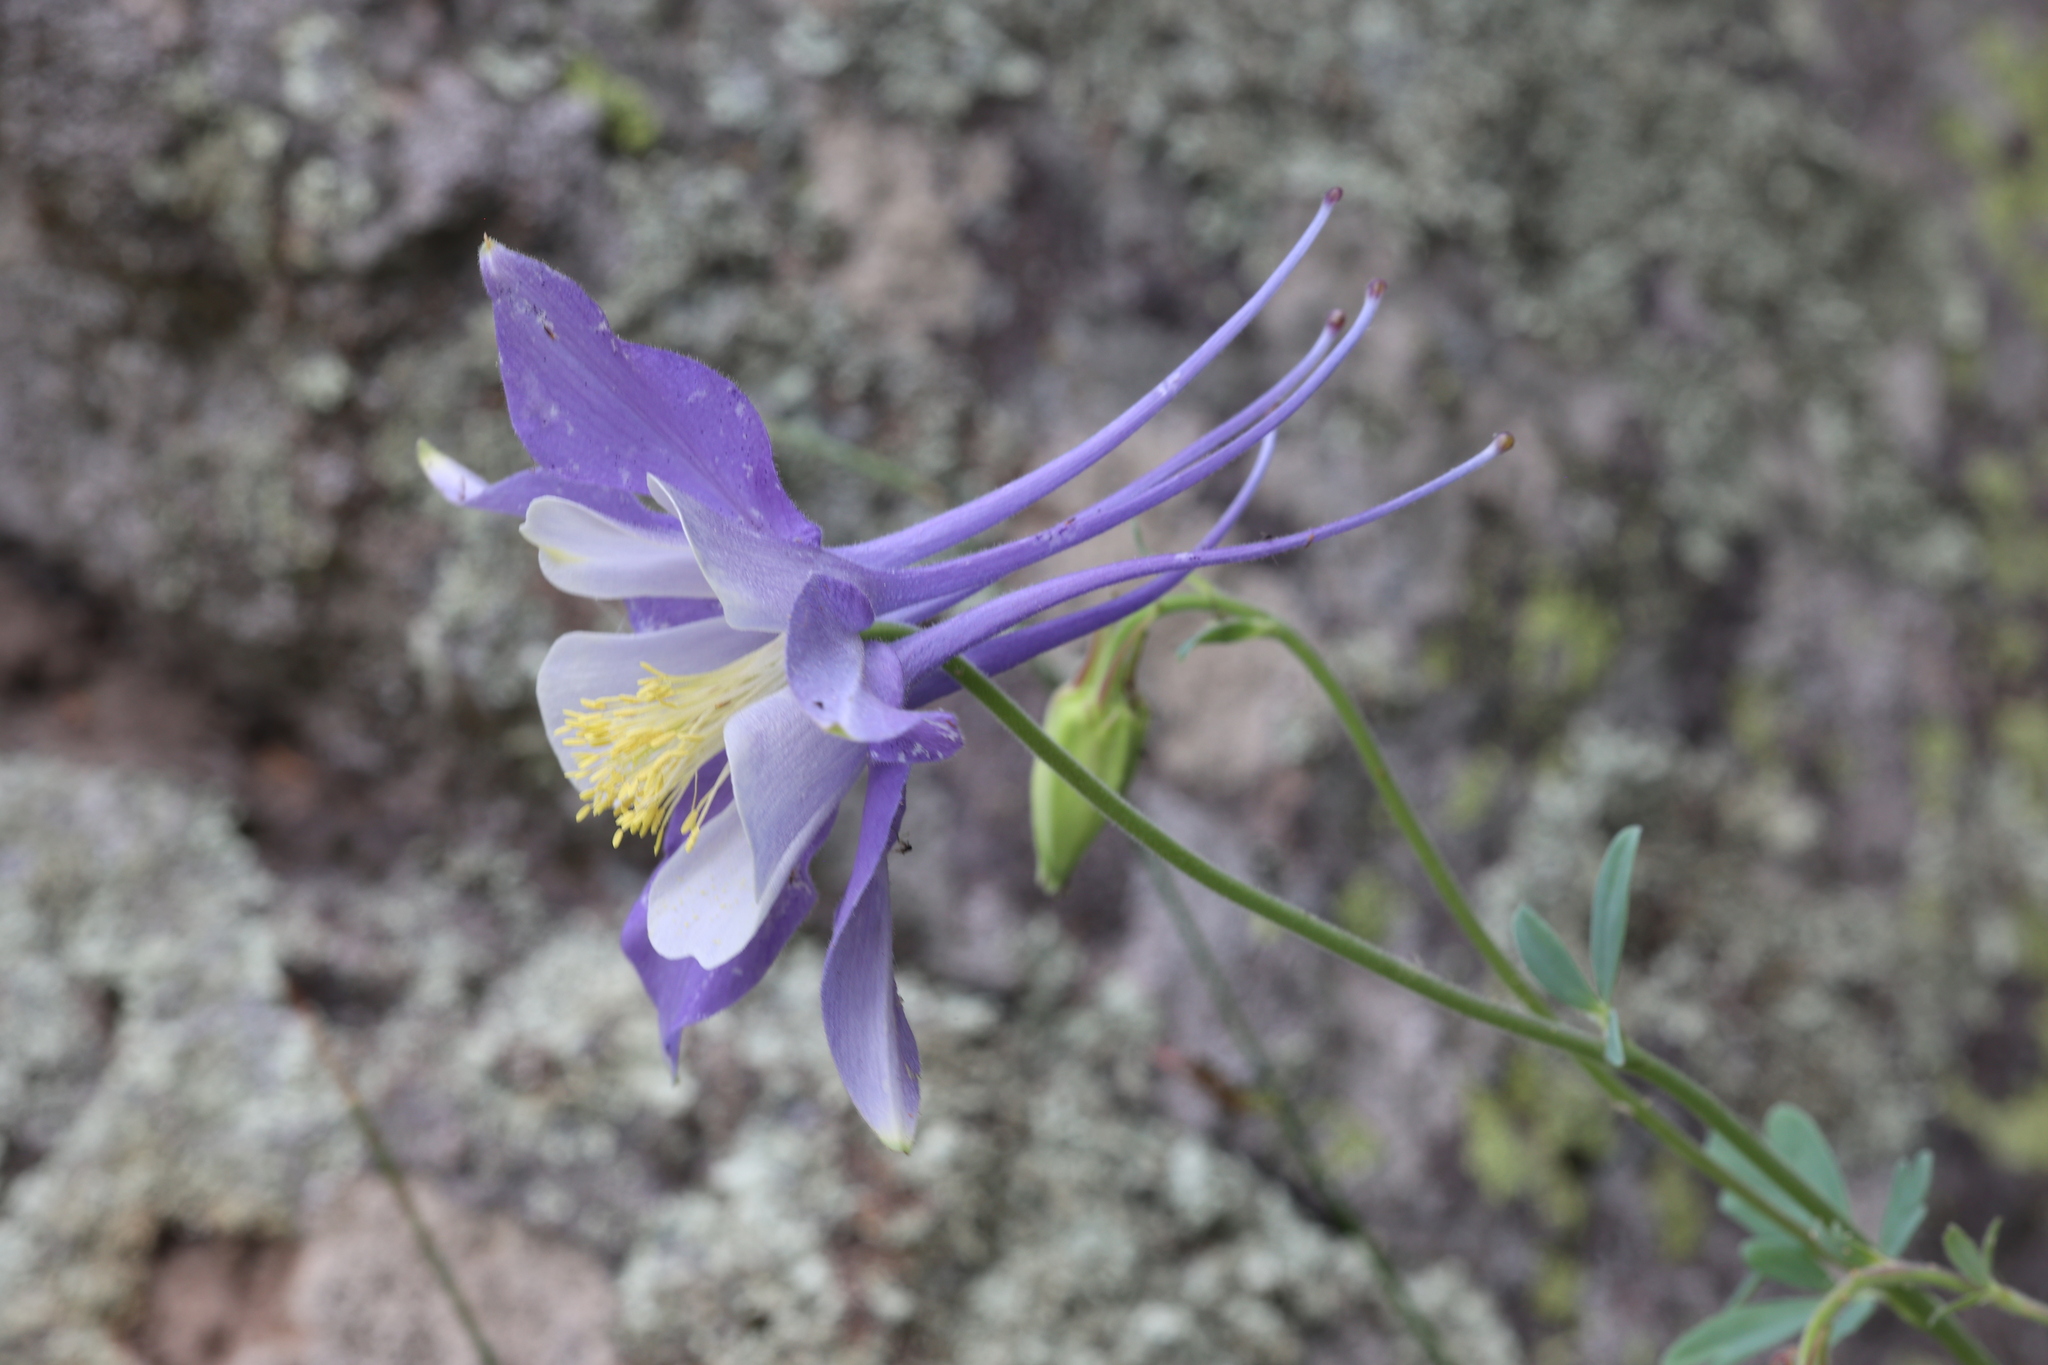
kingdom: Plantae
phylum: Tracheophyta
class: Magnoliopsida
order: Ranunculales
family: Ranunculaceae
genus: Aquilegia
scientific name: Aquilegia coerulea
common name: Rocky mountain columbine
